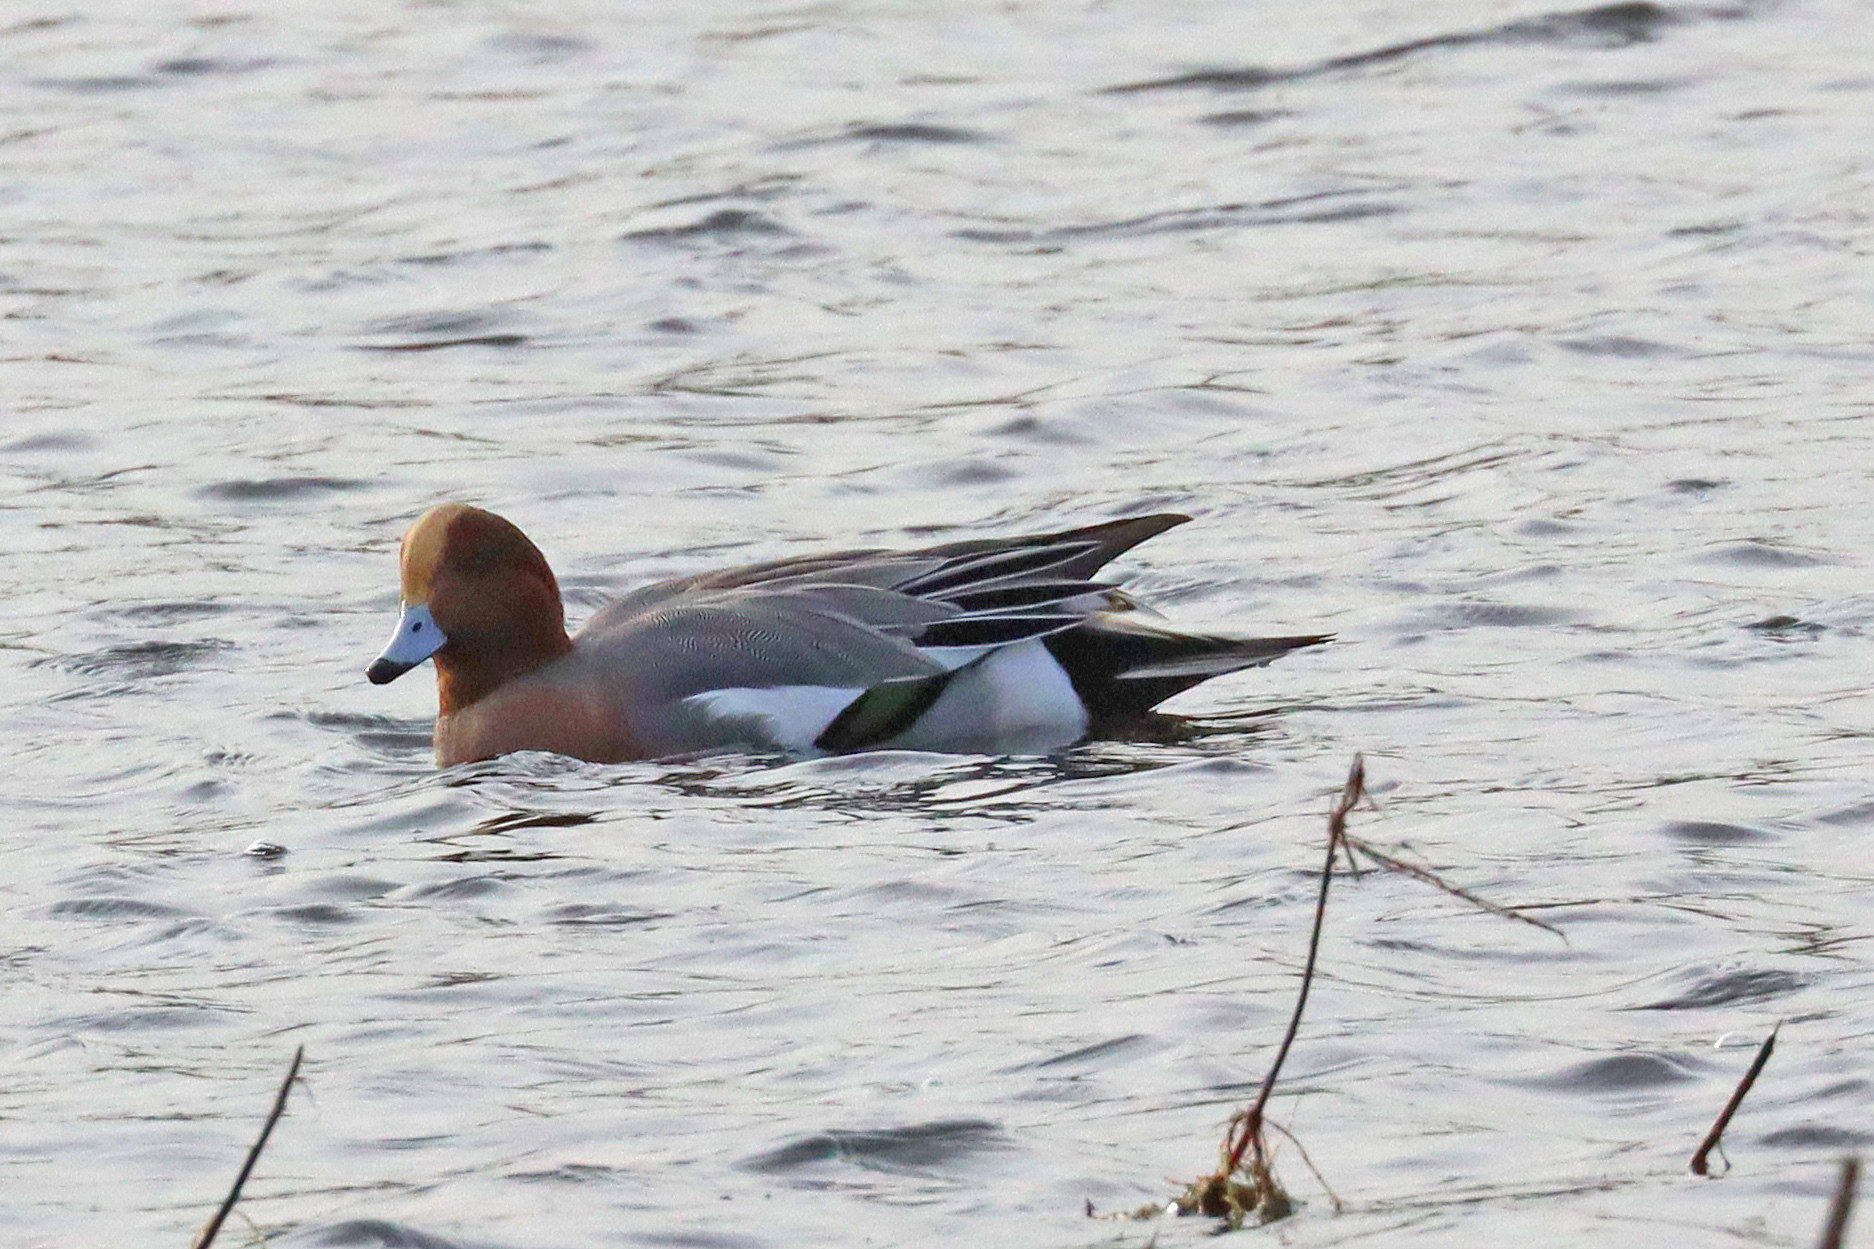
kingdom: Animalia
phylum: Chordata
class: Aves
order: Anseriformes
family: Anatidae
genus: Mareca
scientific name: Mareca penelope
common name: Eurasian wigeon
